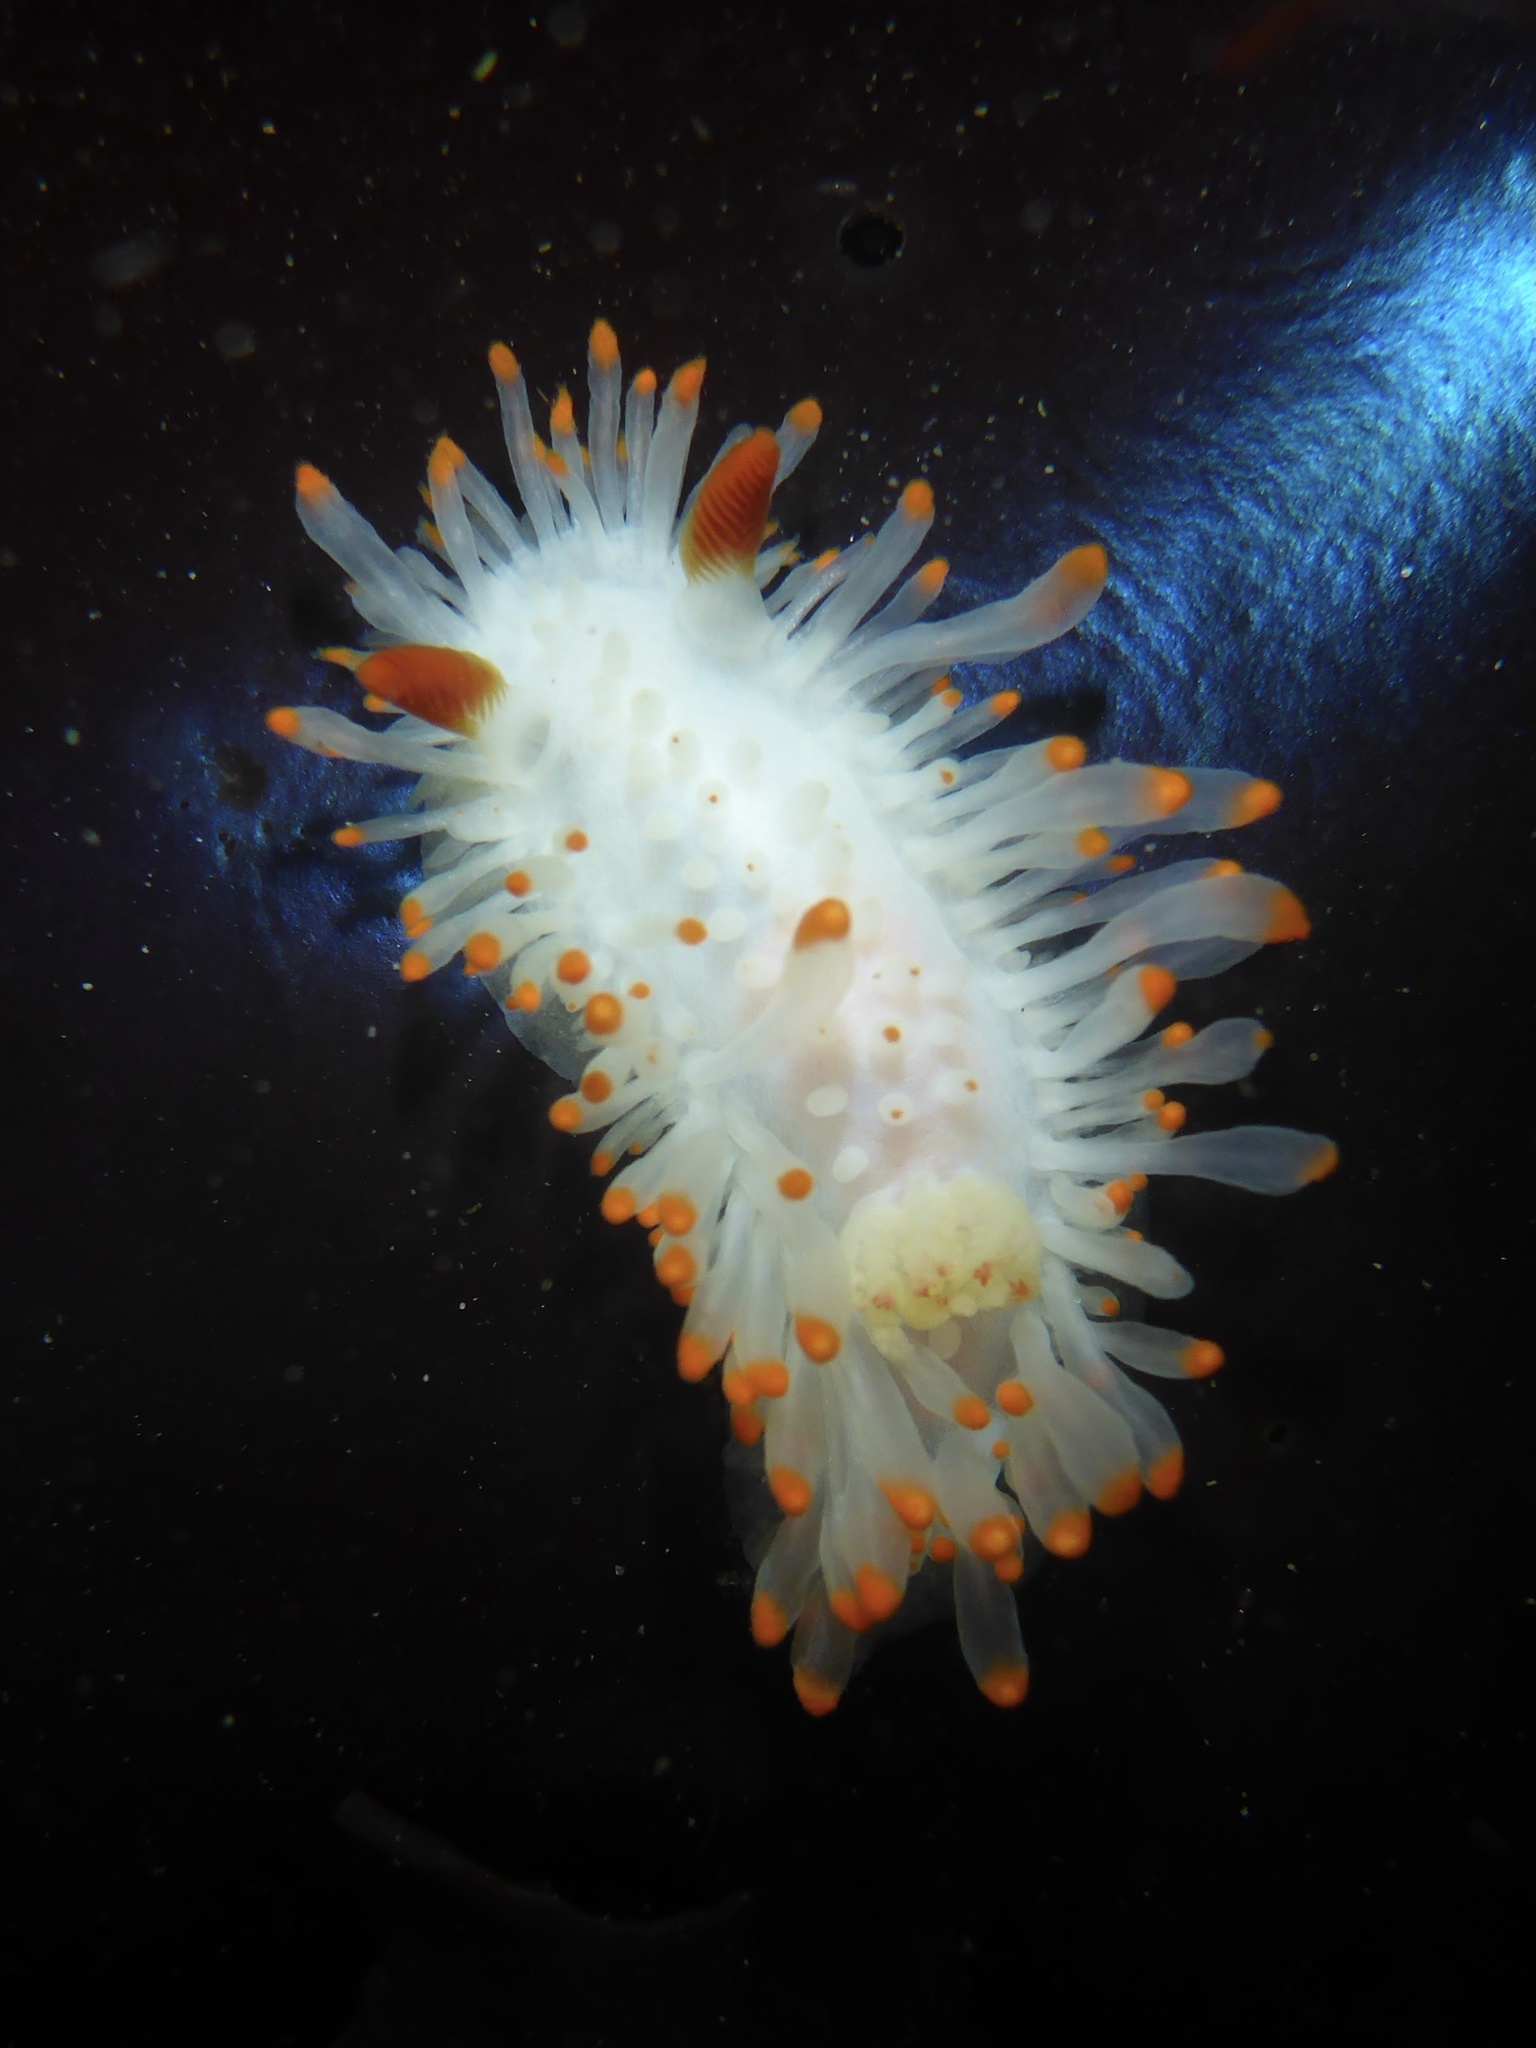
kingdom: Animalia
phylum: Mollusca
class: Gastropoda
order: Nudibranchia
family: Polyceridae
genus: Limacia
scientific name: Limacia cockerelli
